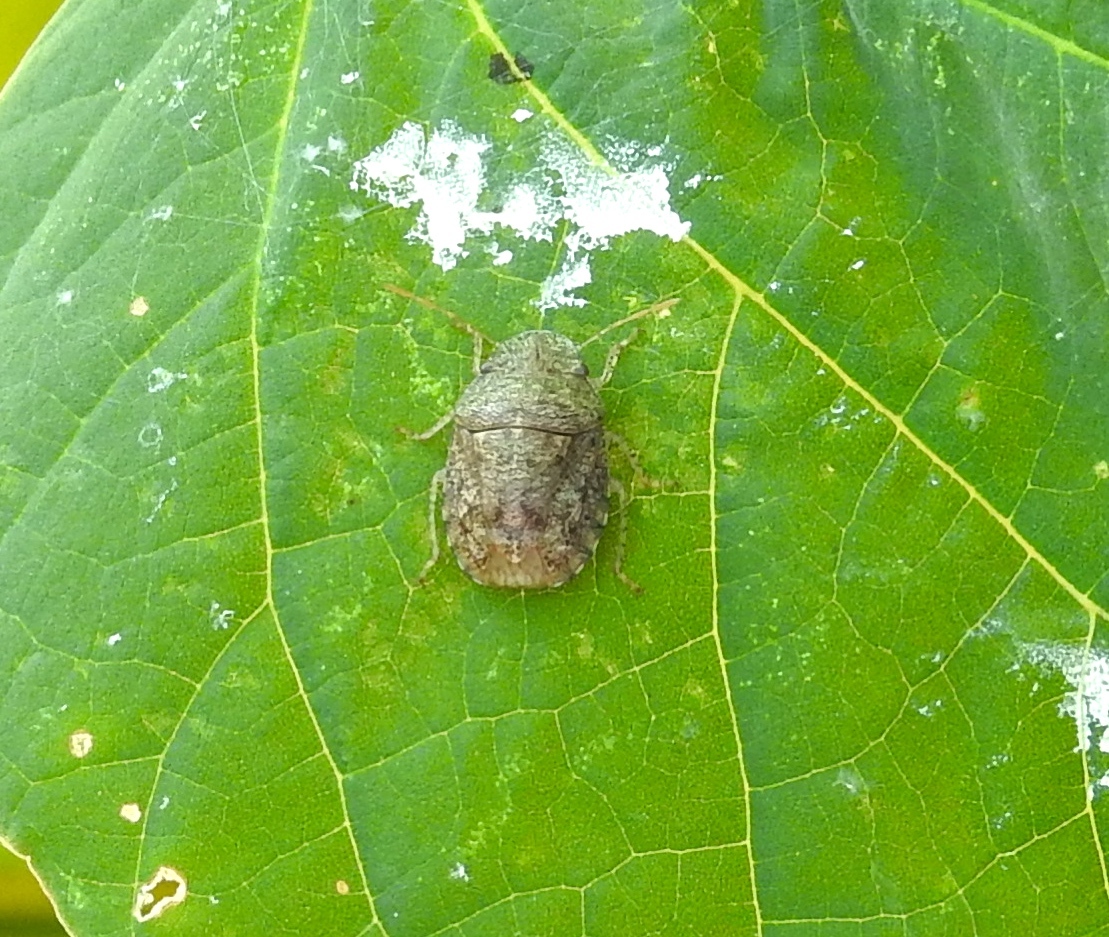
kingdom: Animalia
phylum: Arthropoda
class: Insecta
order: Hemiptera
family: Pentatomidae
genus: Lineostethus
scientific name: Lineostethus
